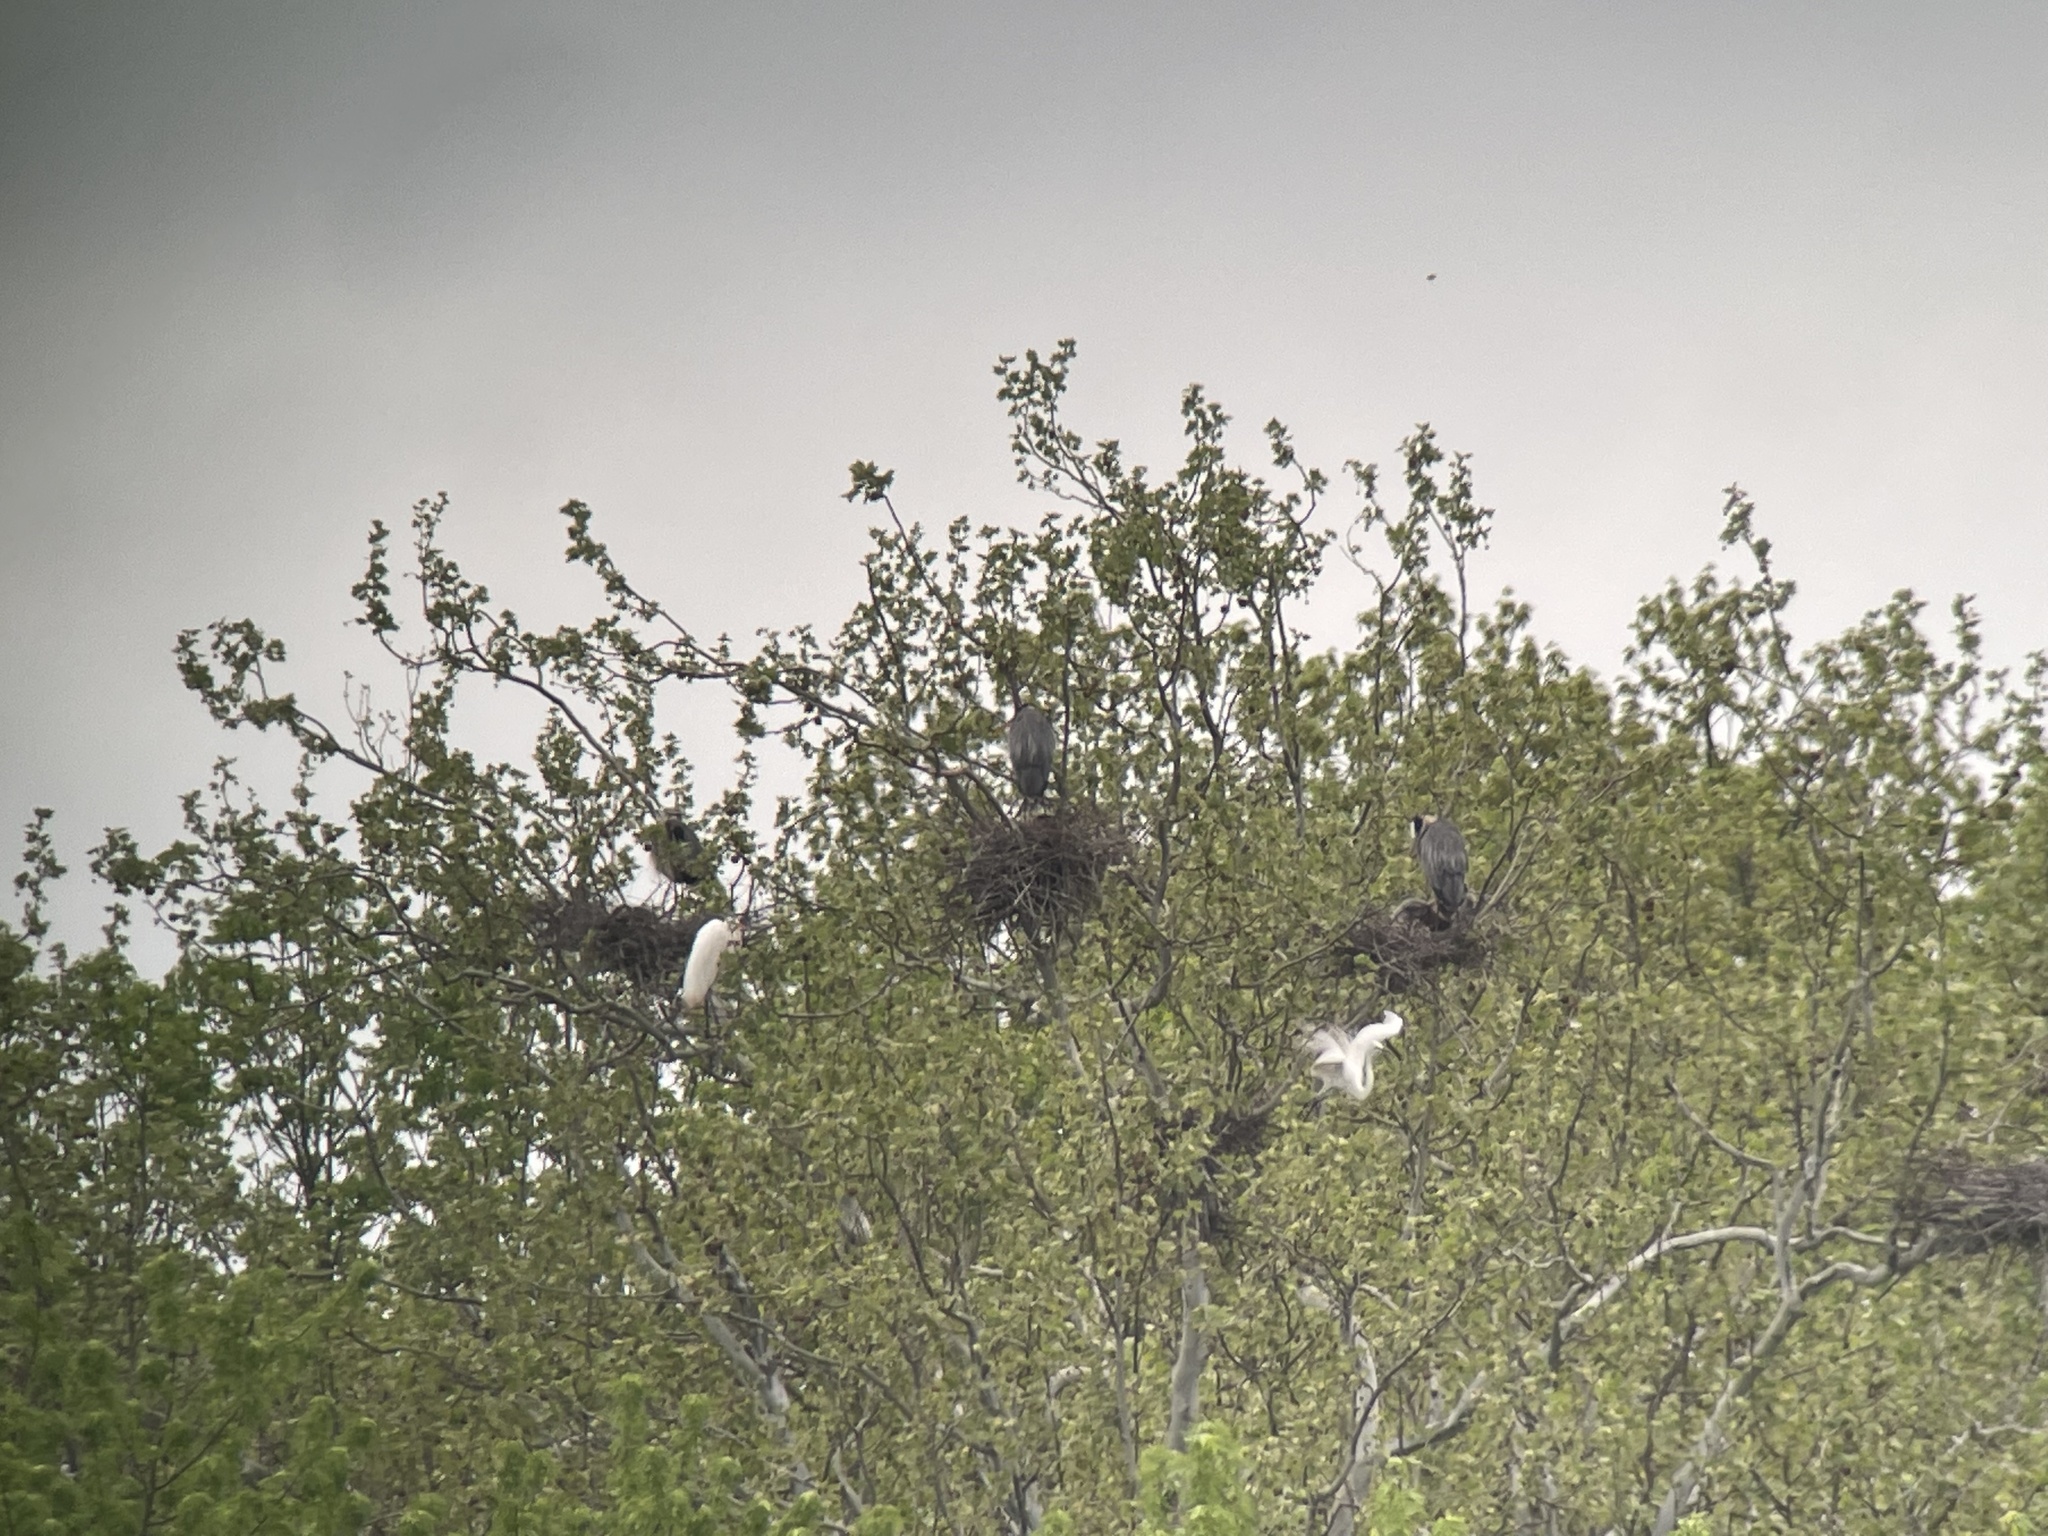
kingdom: Animalia
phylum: Chordata
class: Aves
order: Pelecaniformes
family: Ardeidae
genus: Ardea
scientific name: Ardea herodias
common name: Great blue heron
